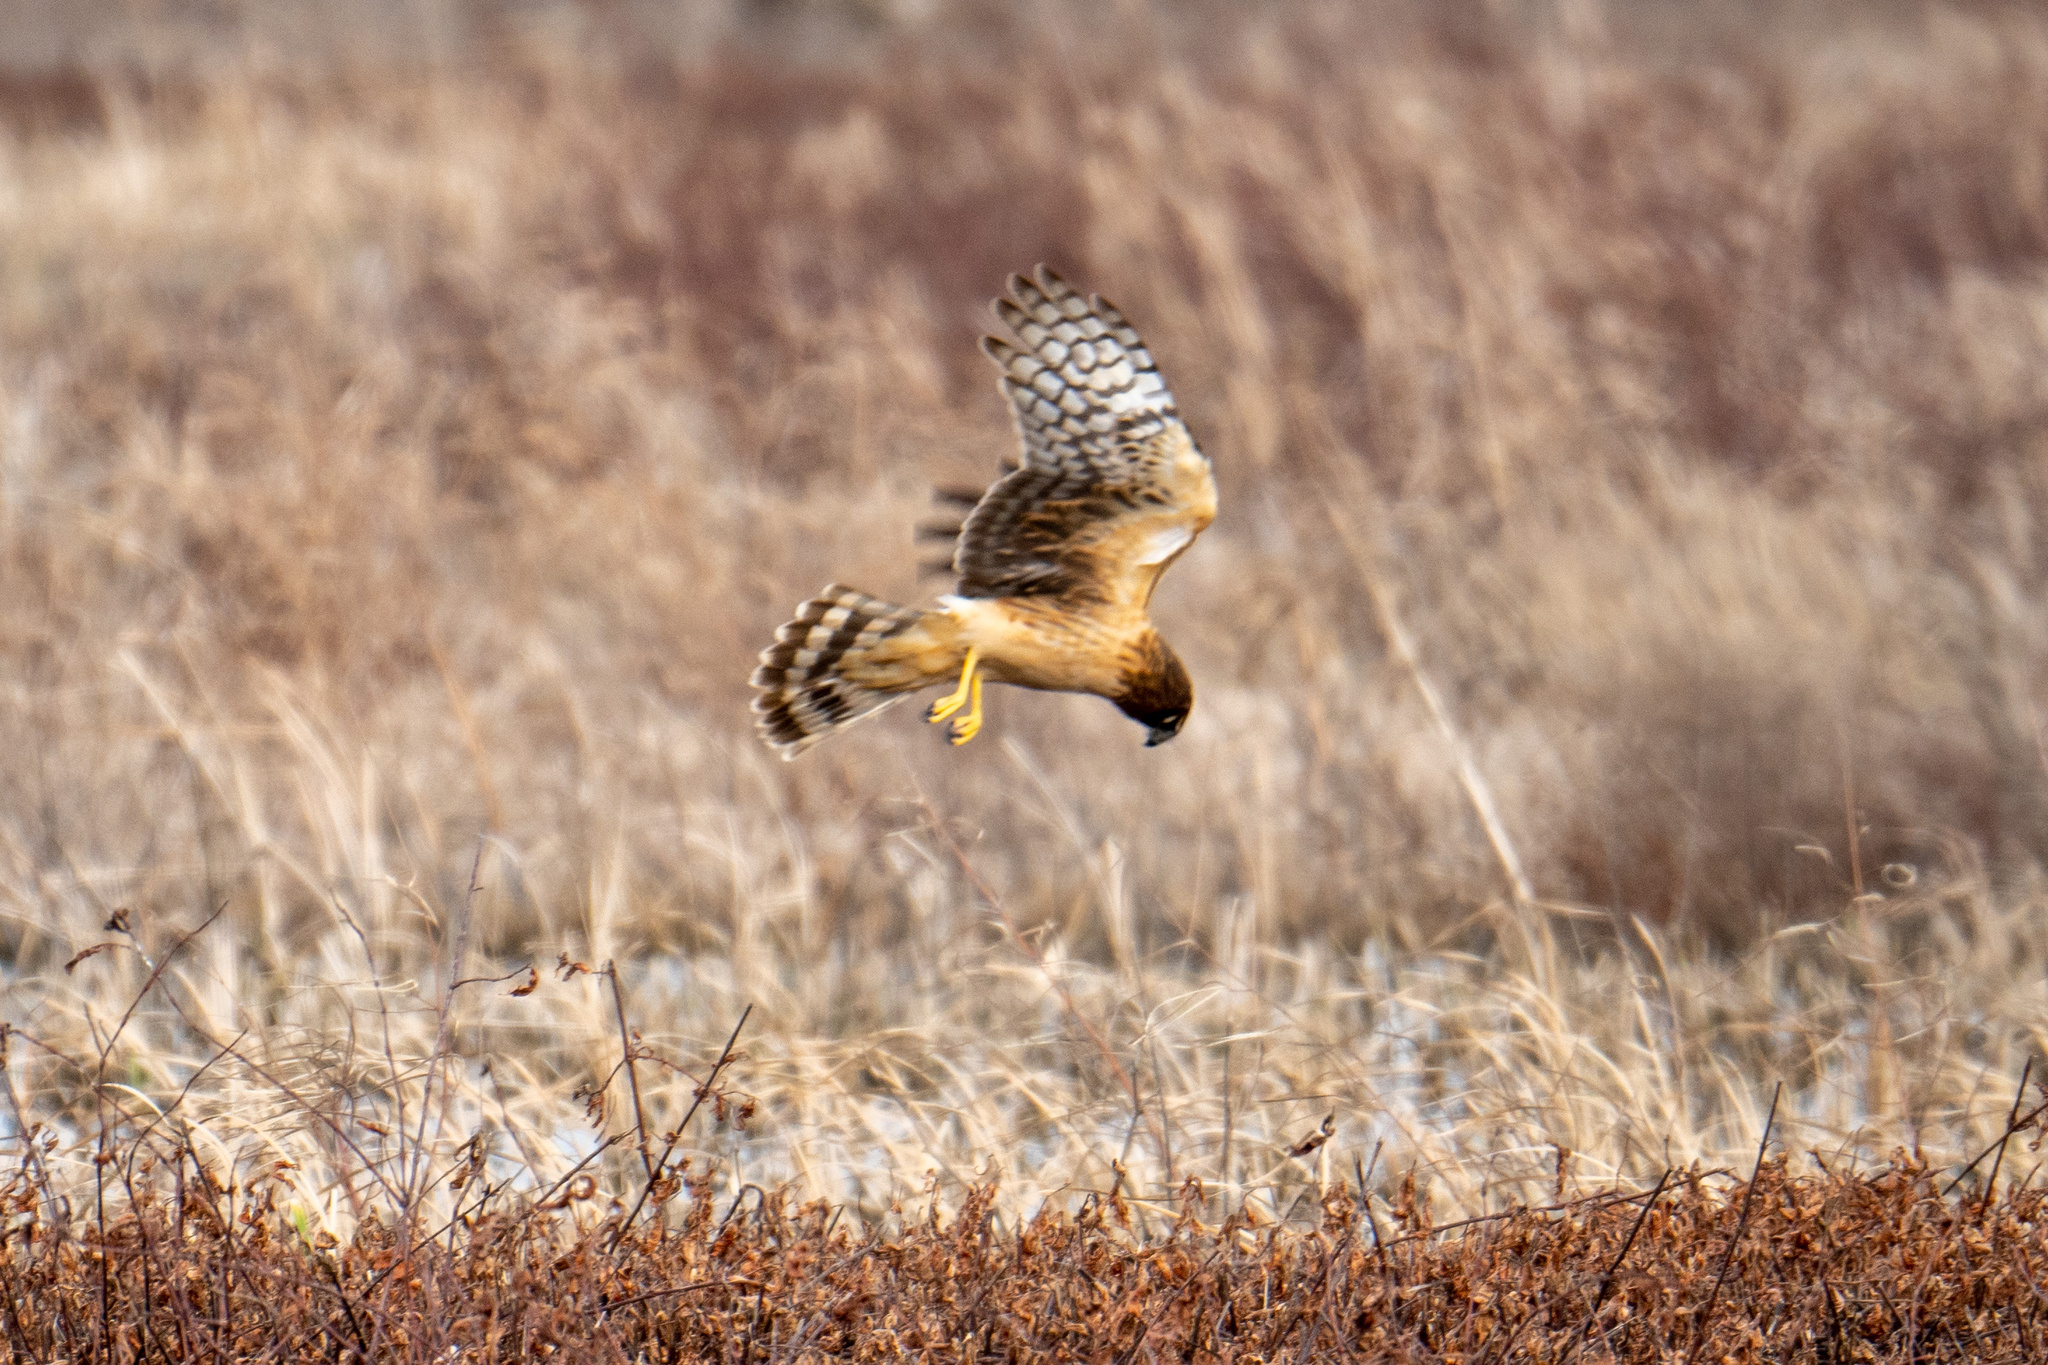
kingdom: Animalia
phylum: Chordata
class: Aves
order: Accipitriformes
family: Accipitridae
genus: Circus
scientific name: Circus cyaneus
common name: Hen harrier
